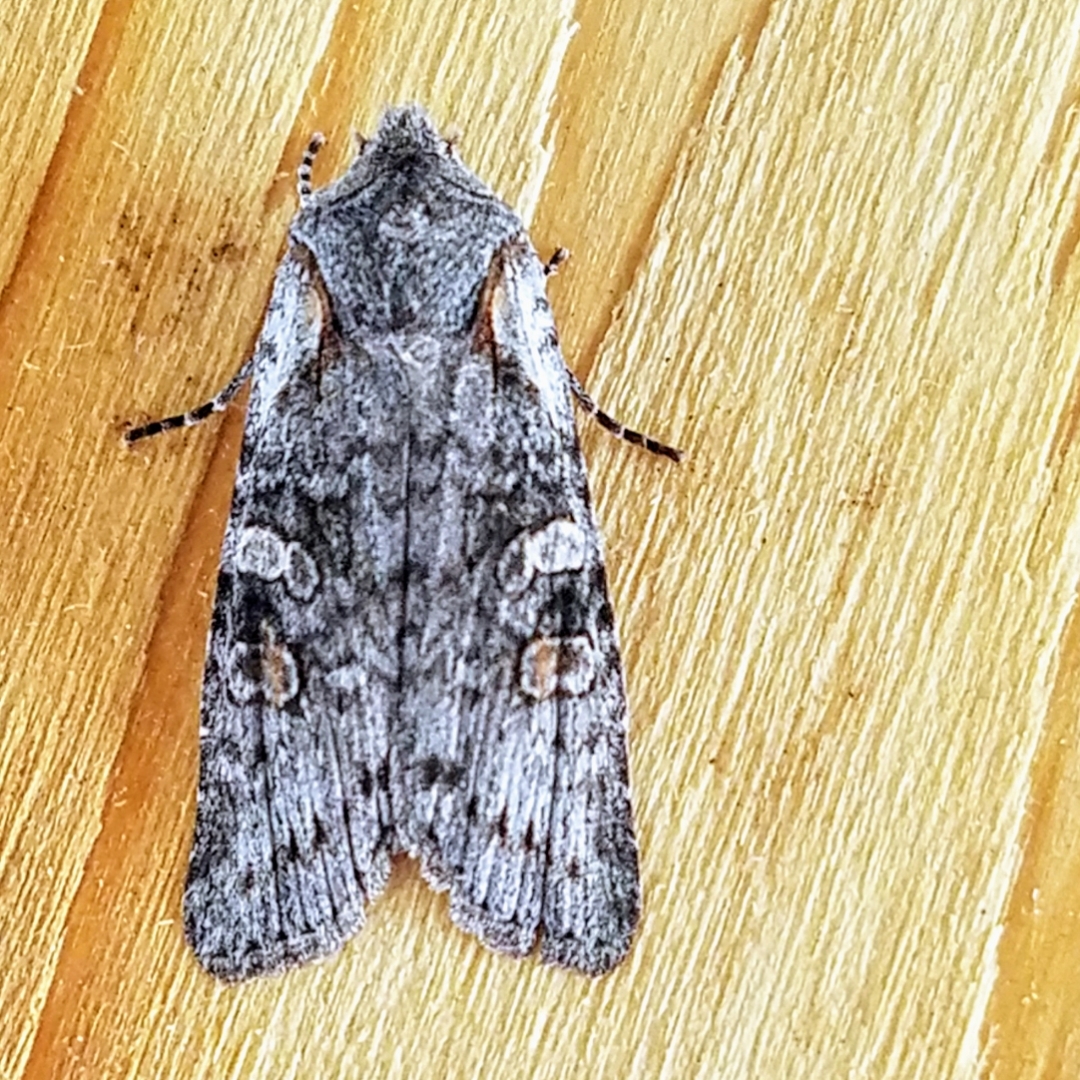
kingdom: Animalia
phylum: Arthropoda
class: Insecta
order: Lepidoptera
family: Noctuidae
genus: Lithophane
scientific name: Lithophane pertorrida
